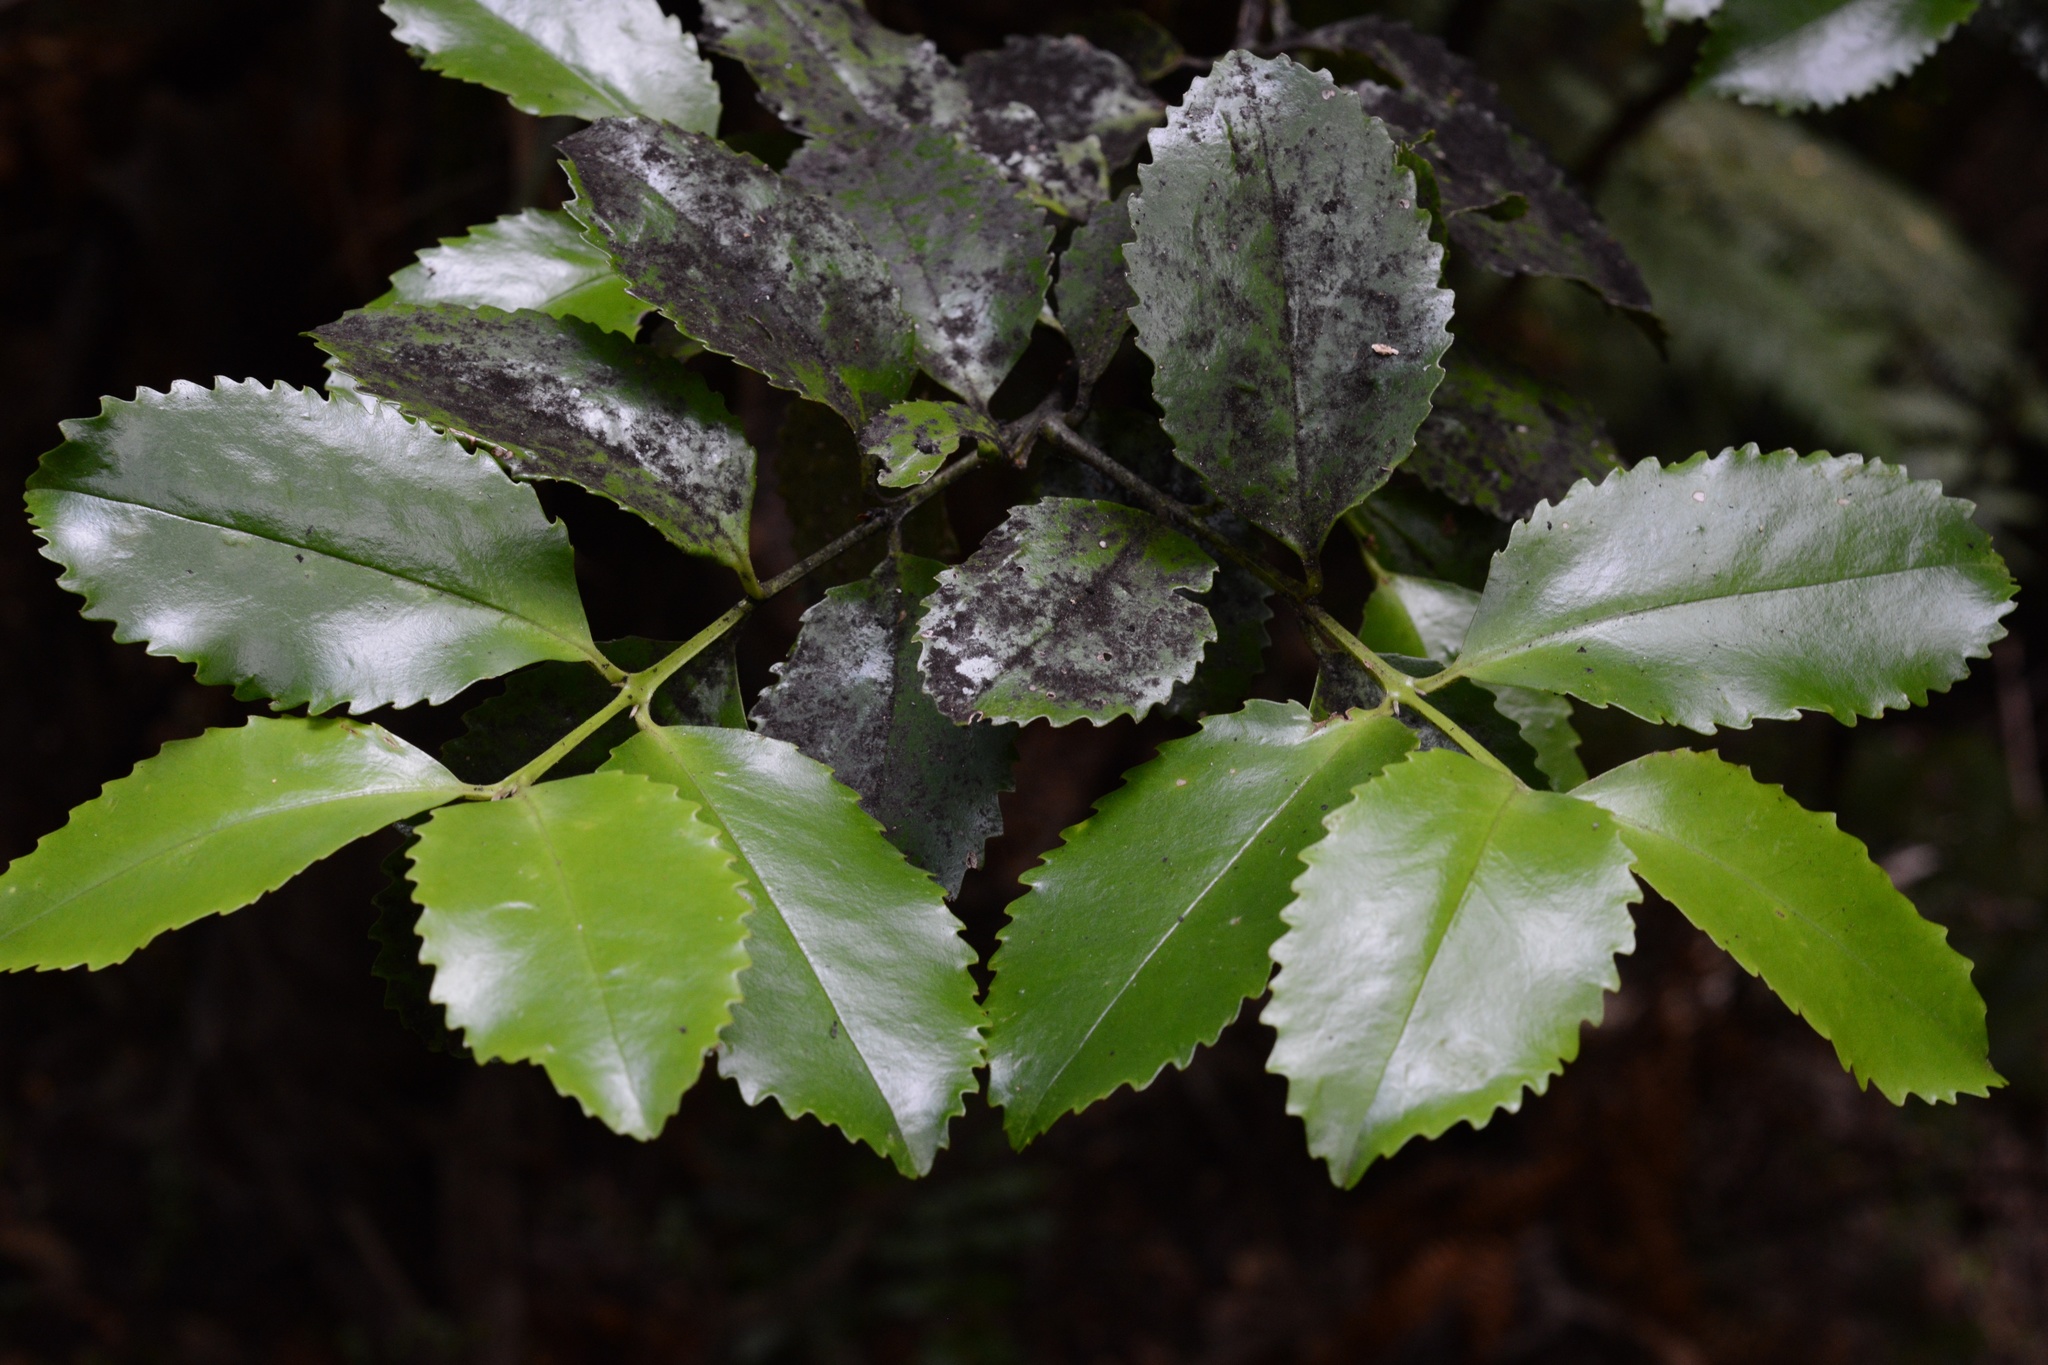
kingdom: Plantae
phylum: Tracheophyta
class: Magnoliopsida
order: Laurales
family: Atherospermataceae
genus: Laurelia
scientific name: Laurelia novae-zelandiae
